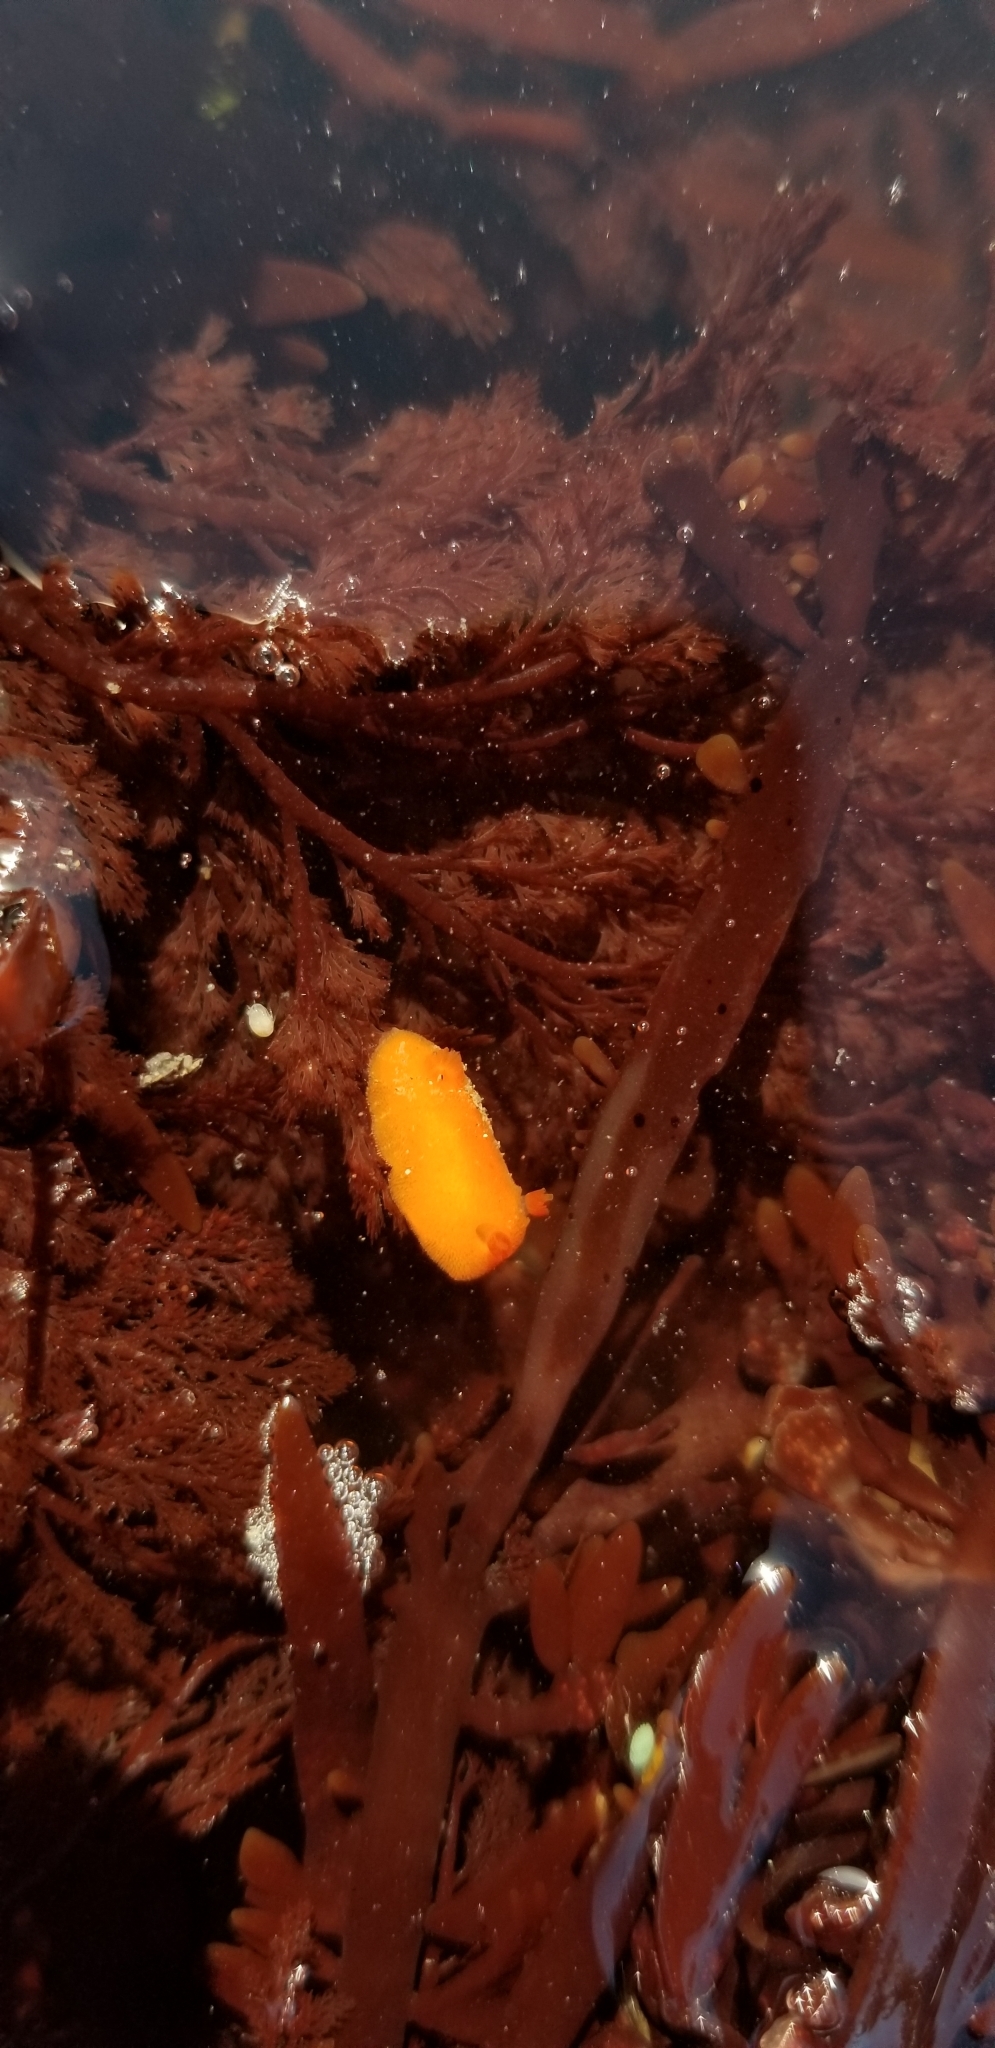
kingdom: Animalia
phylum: Mollusca
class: Gastropoda
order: Nudibranchia
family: Discodorididae
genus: Rostanga
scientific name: Rostanga pulchra
